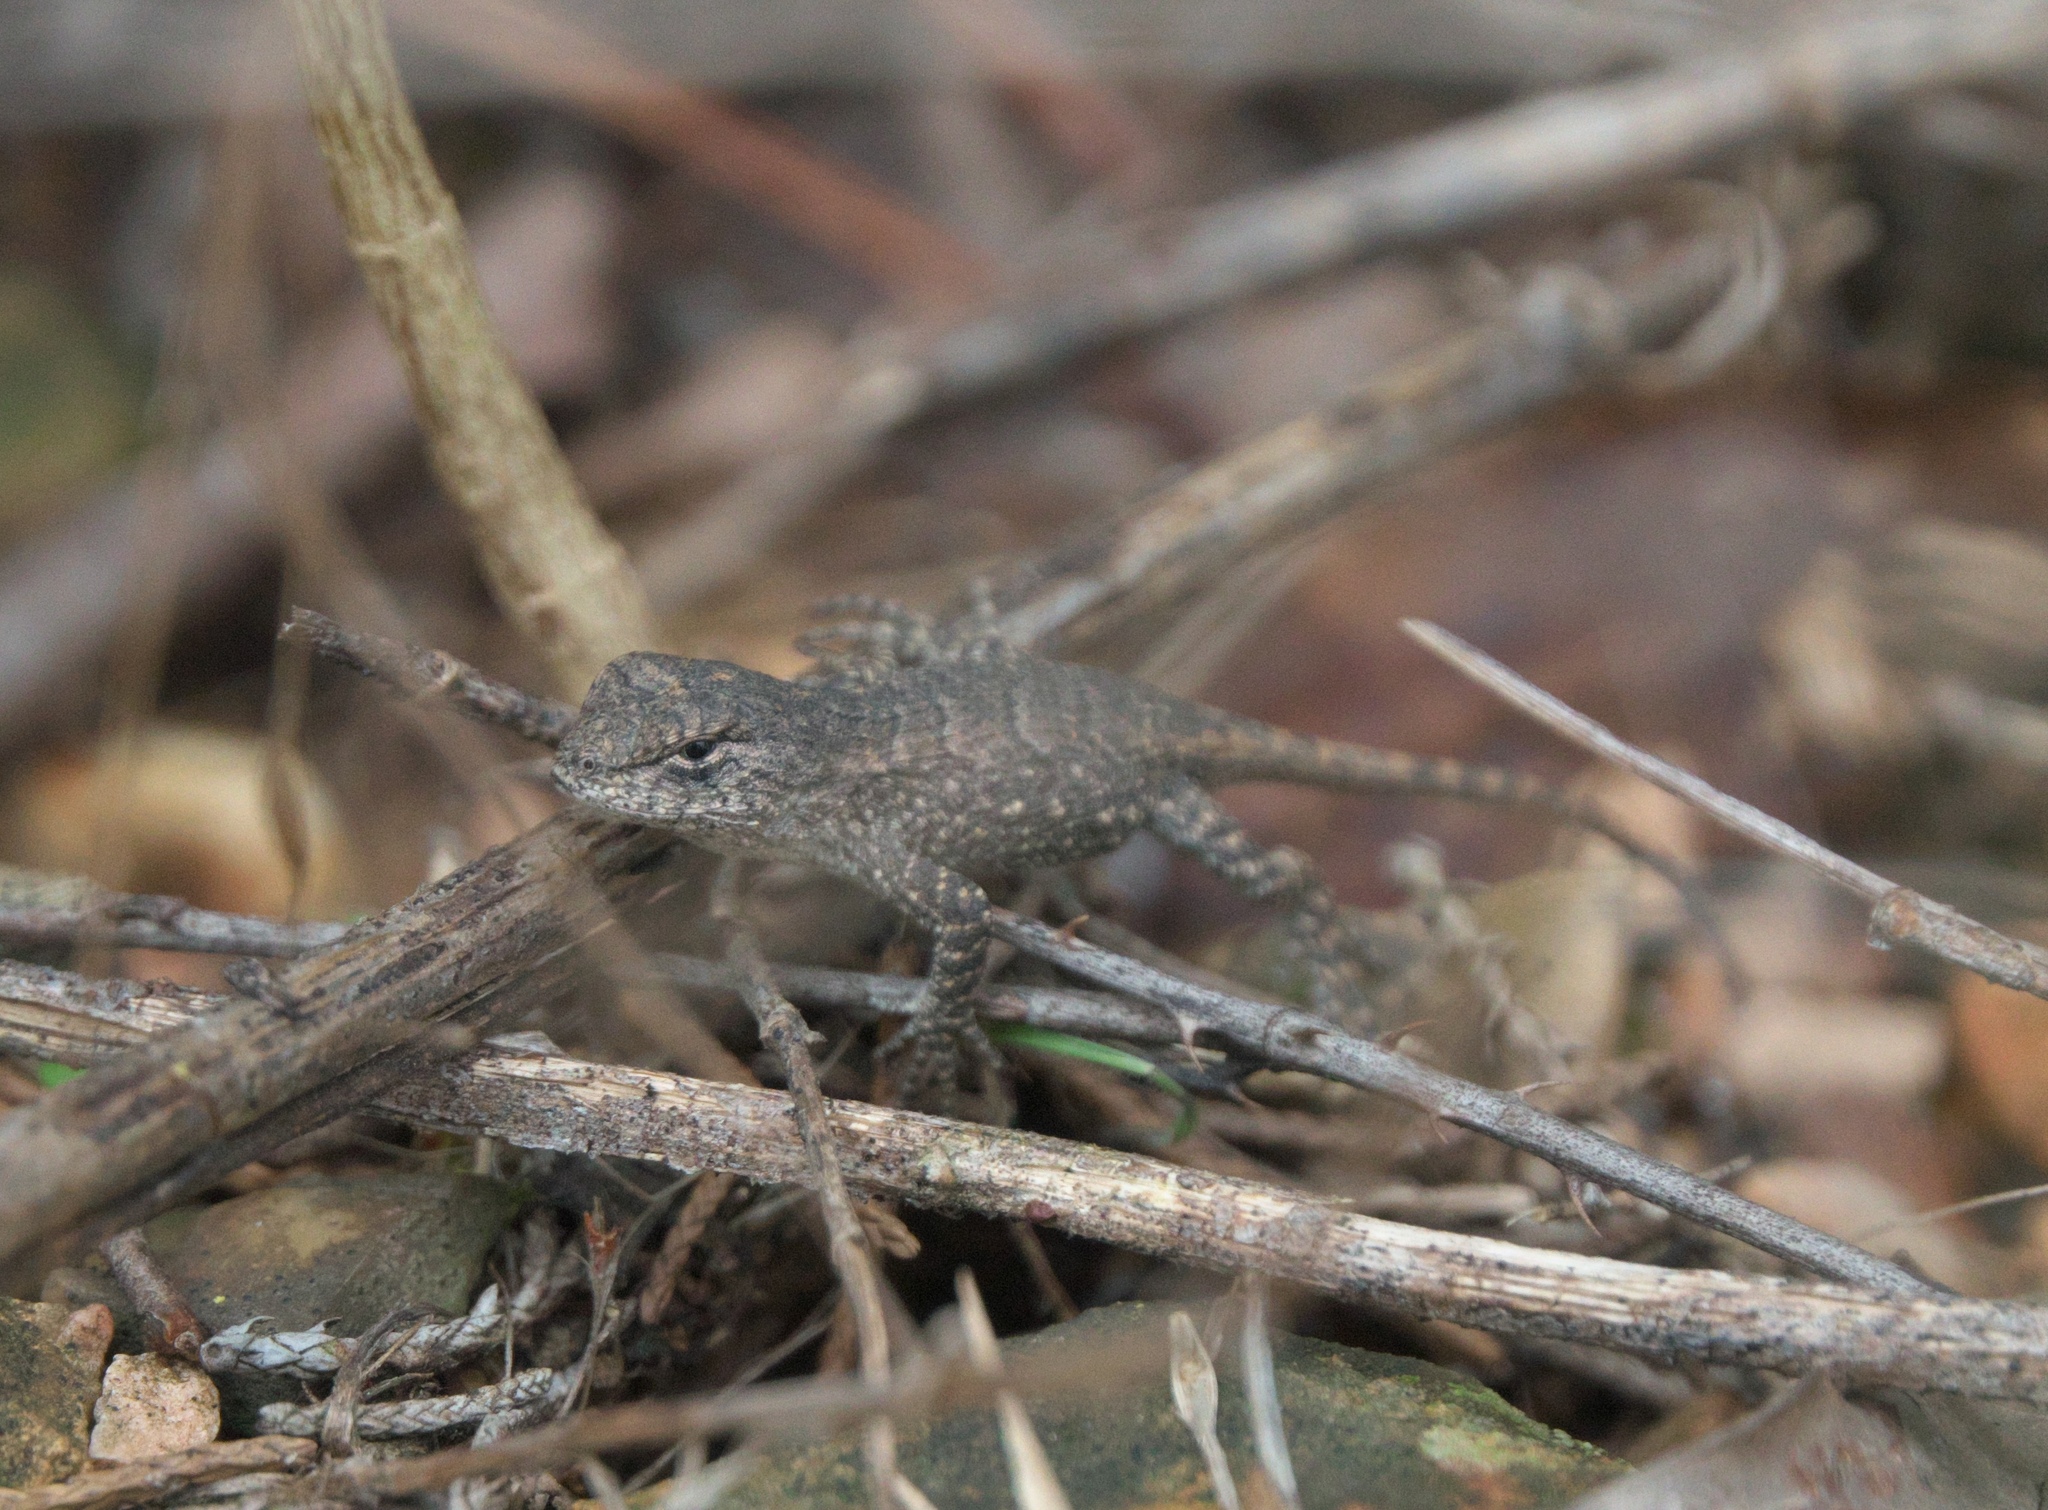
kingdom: Animalia
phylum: Chordata
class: Squamata
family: Phrynosomatidae
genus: Sceloporus
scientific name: Sceloporus consobrinus
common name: Southern prairie lizard
